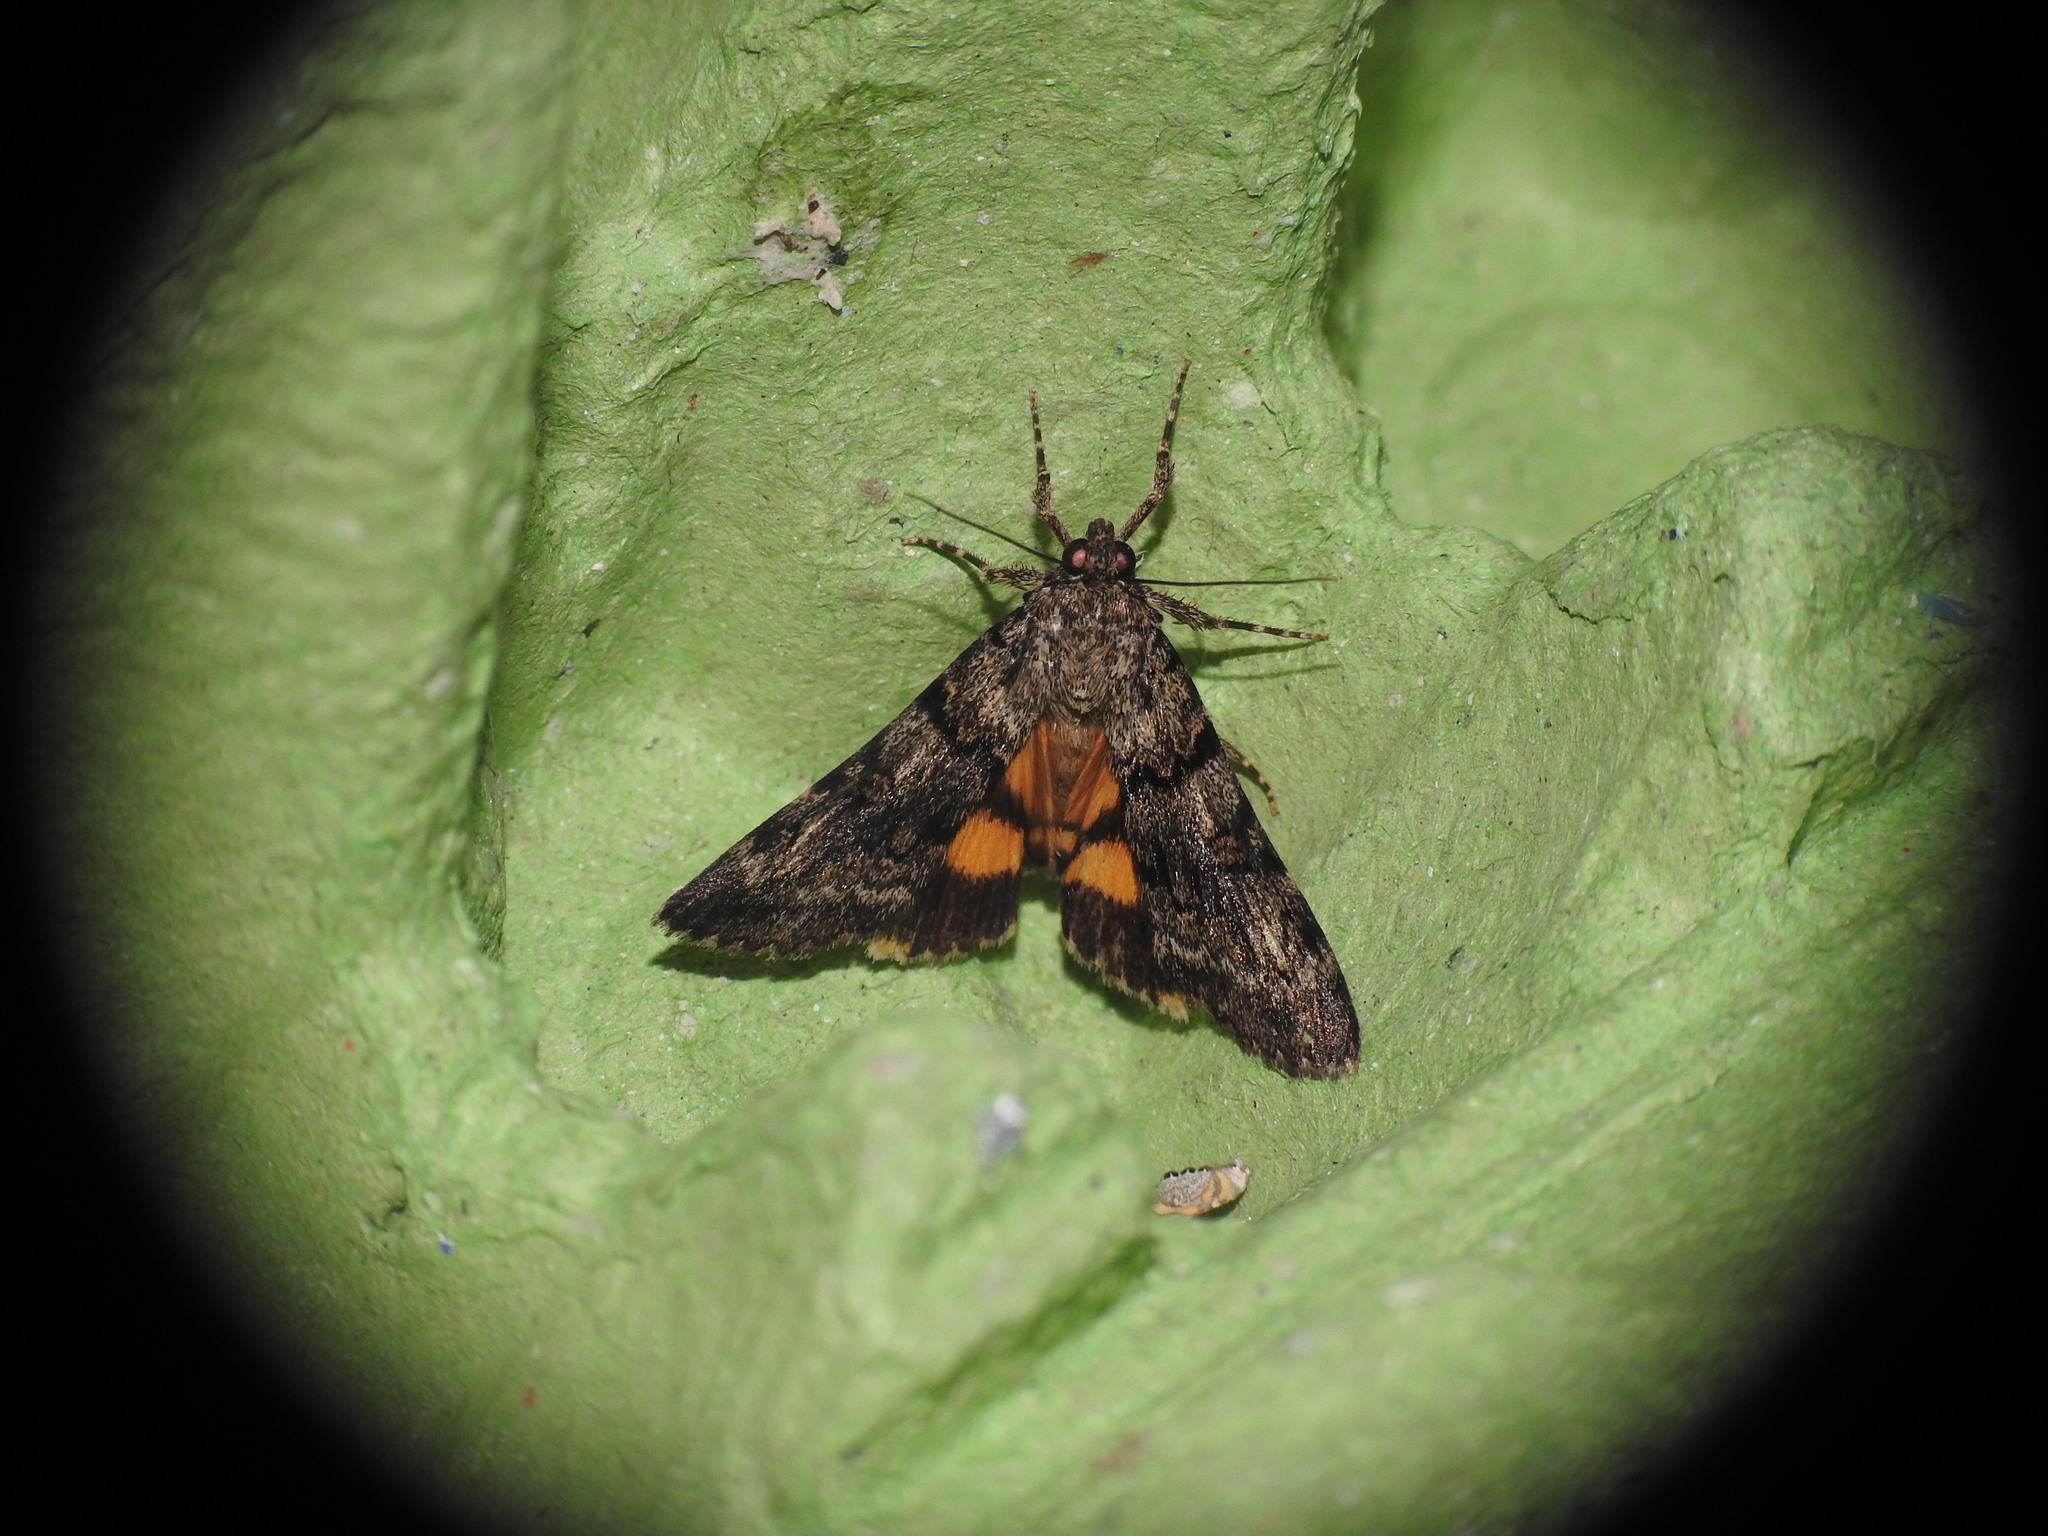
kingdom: Animalia
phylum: Arthropoda
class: Insecta
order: Lepidoptera
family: Erebidae
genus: Catocala
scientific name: Catocala nymphagoga
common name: Oak yellow underwing
